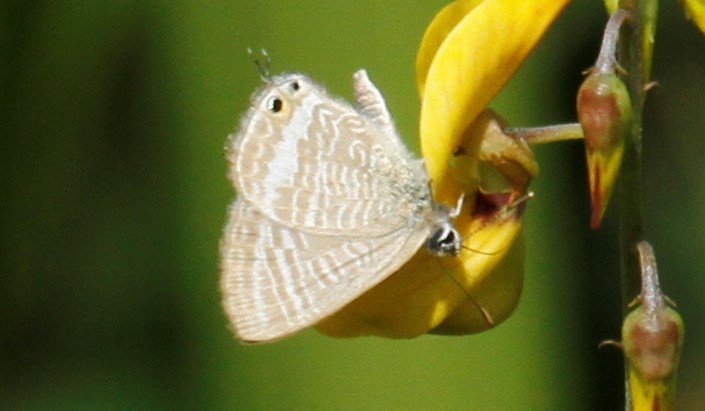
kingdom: Animalia
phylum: Arthropoda
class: Insecta
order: Lepidoptera
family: Lycaenidae
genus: Lampides
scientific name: Lampides boeticus
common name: Long-tailed blue
